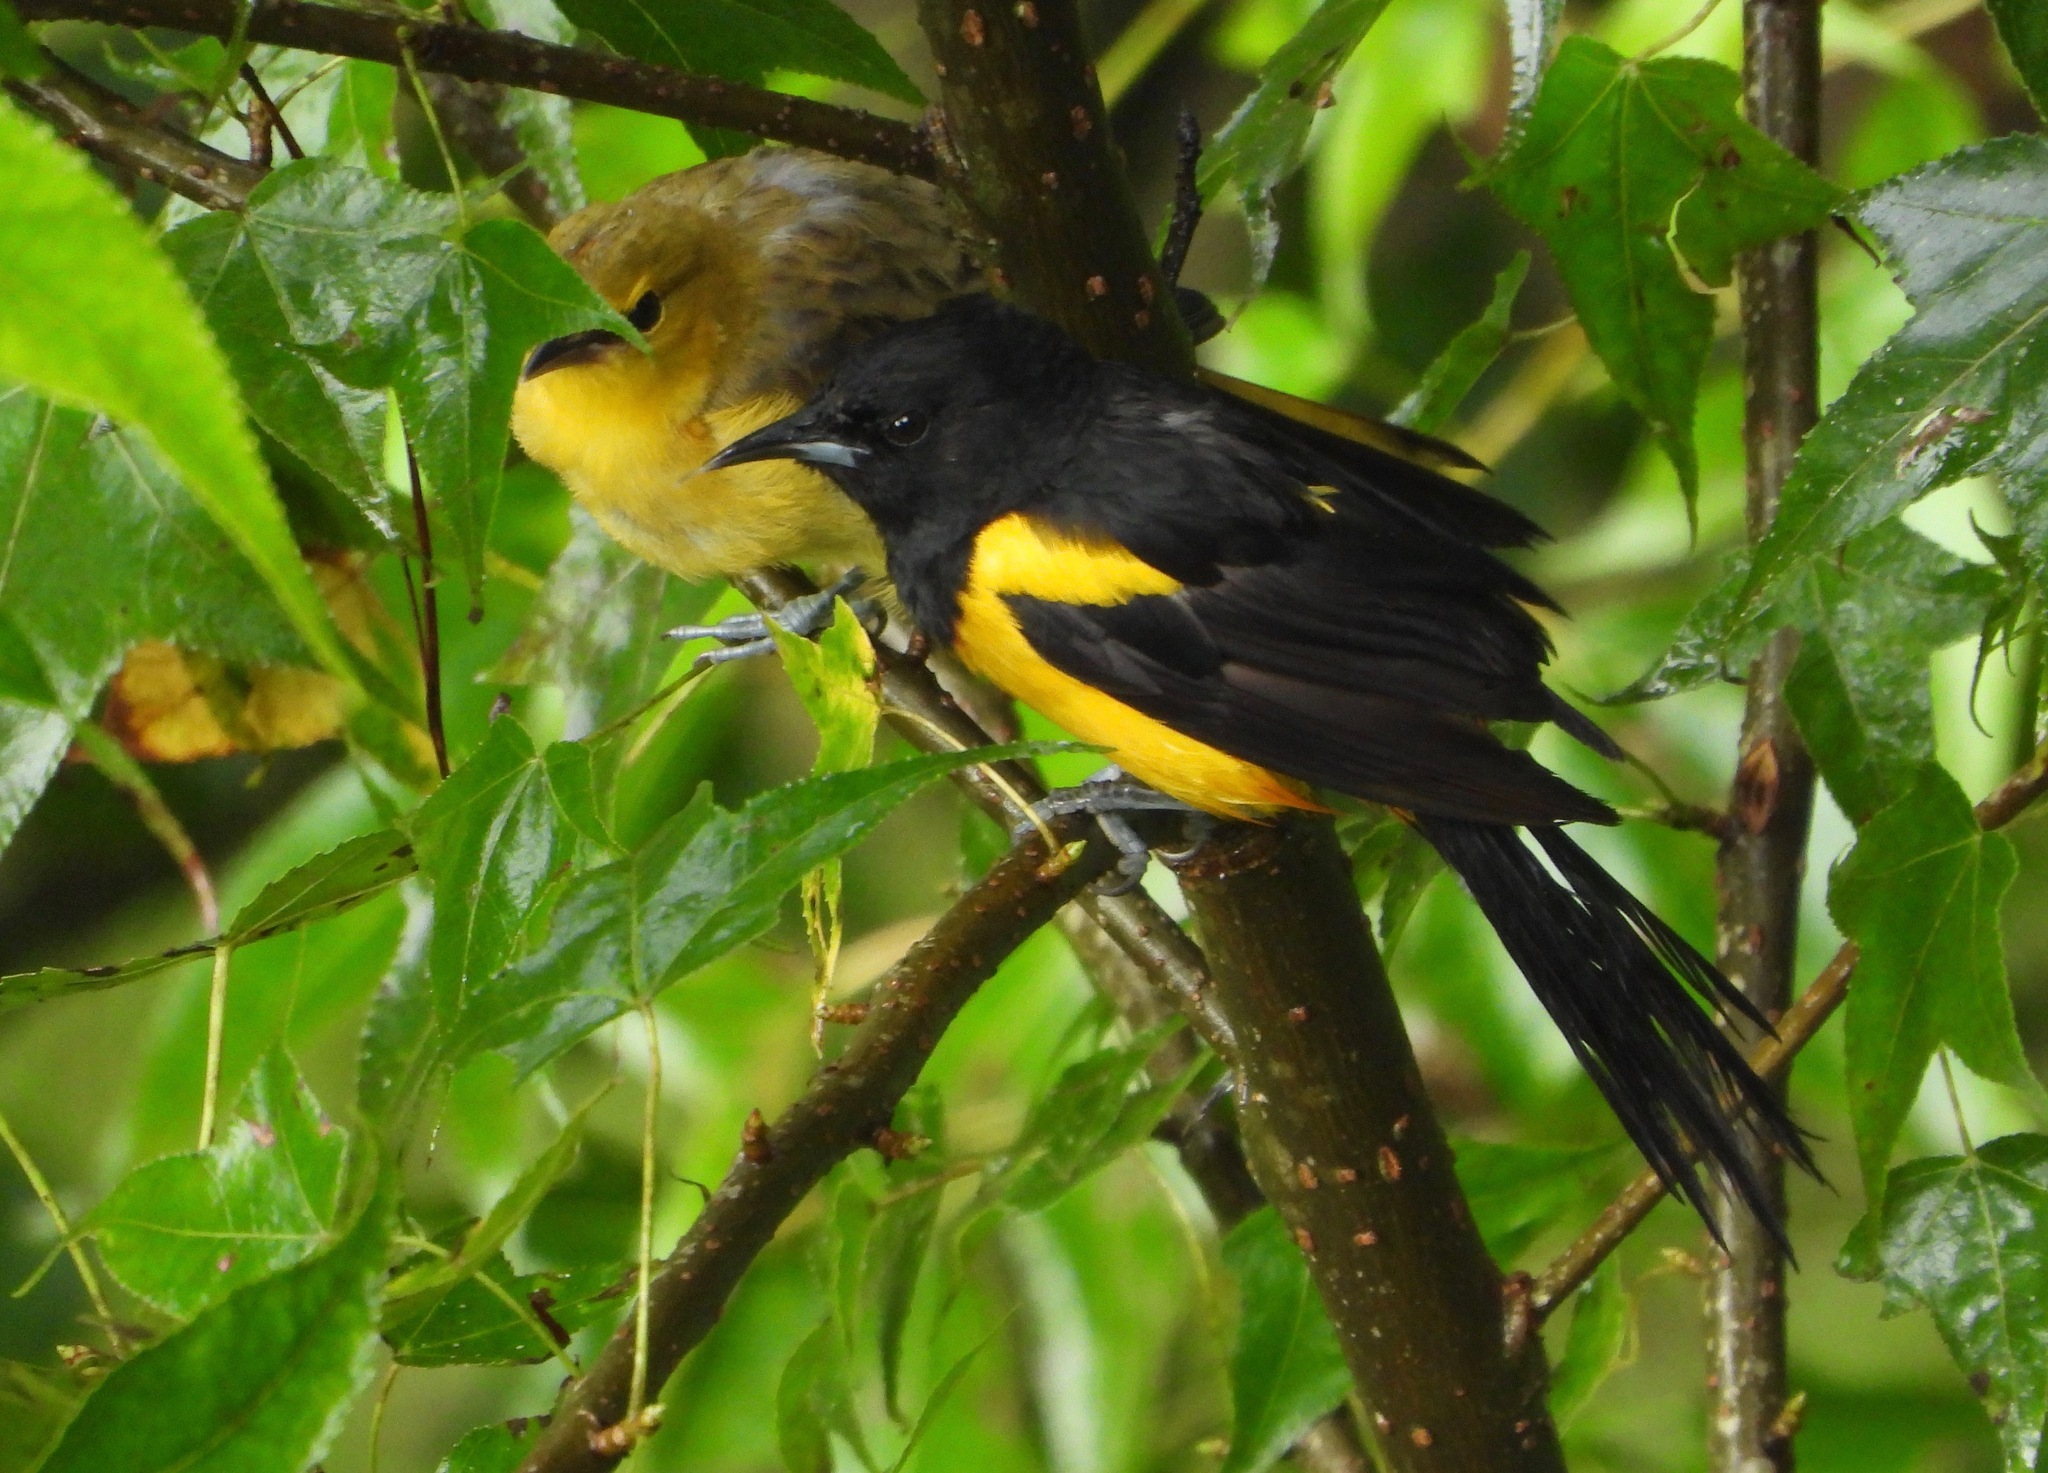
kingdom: Animalia
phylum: Chordata
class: Aves
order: Passeriformes
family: Icteridae
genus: Icterus
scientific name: Icterus wagleri
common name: Black-vented oriole
